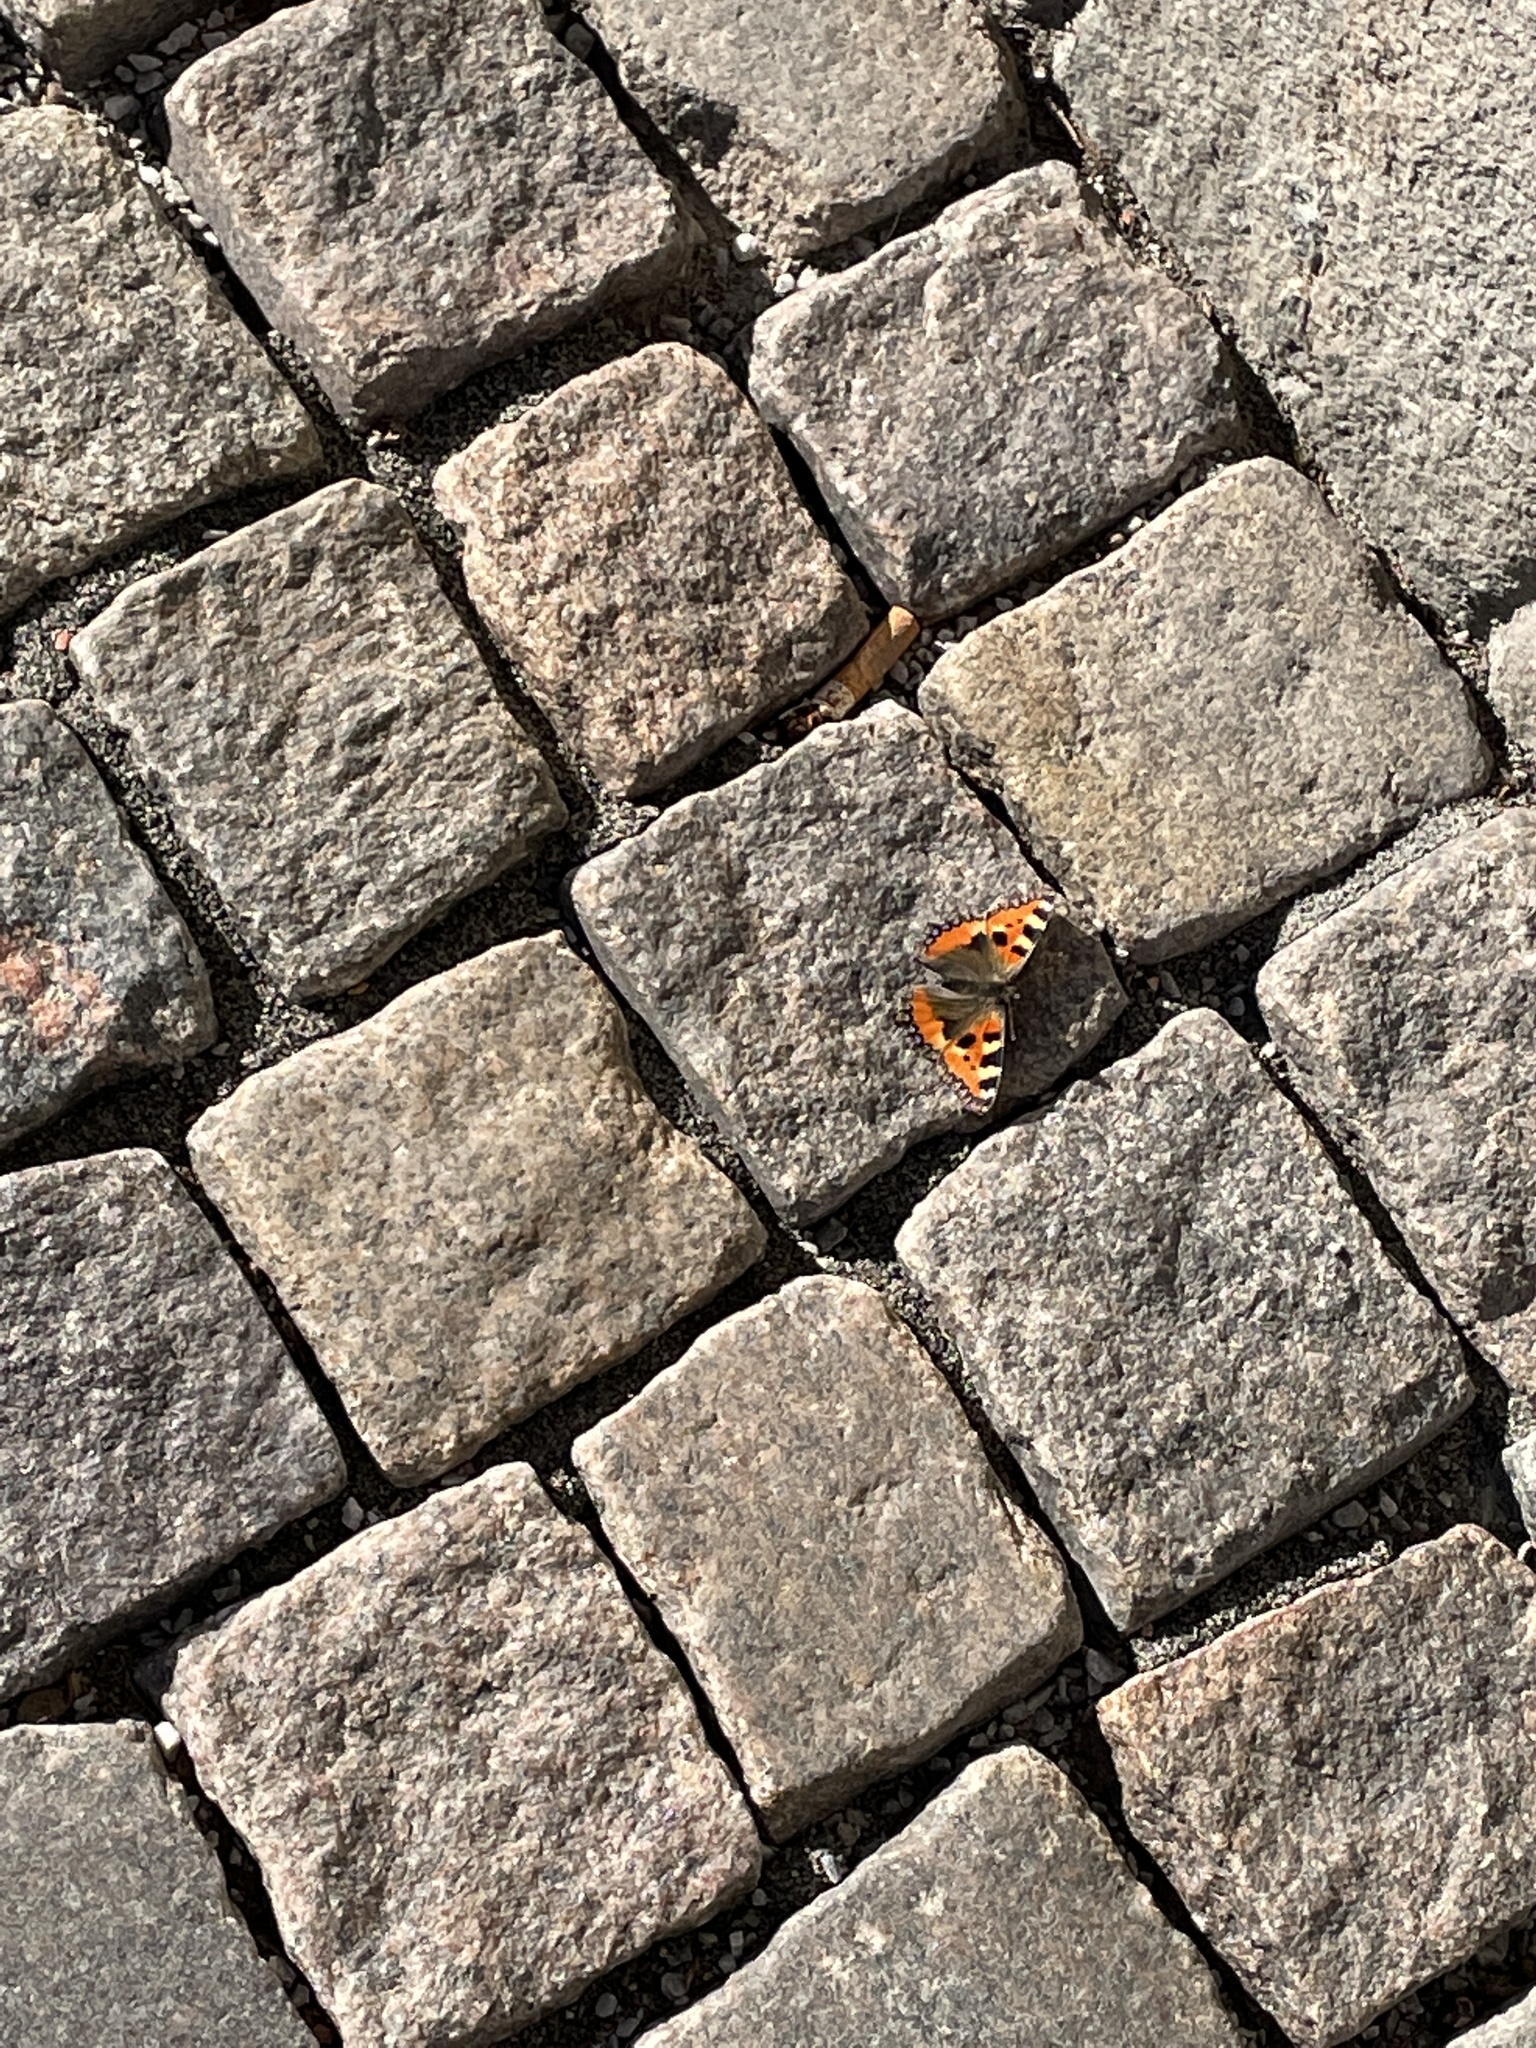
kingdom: Animalia
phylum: Arthropoda
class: Insecta
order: Lepidoptera
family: Nymphalidae
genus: Aglais
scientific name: Aglais urticae
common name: Small tortoiseshell
